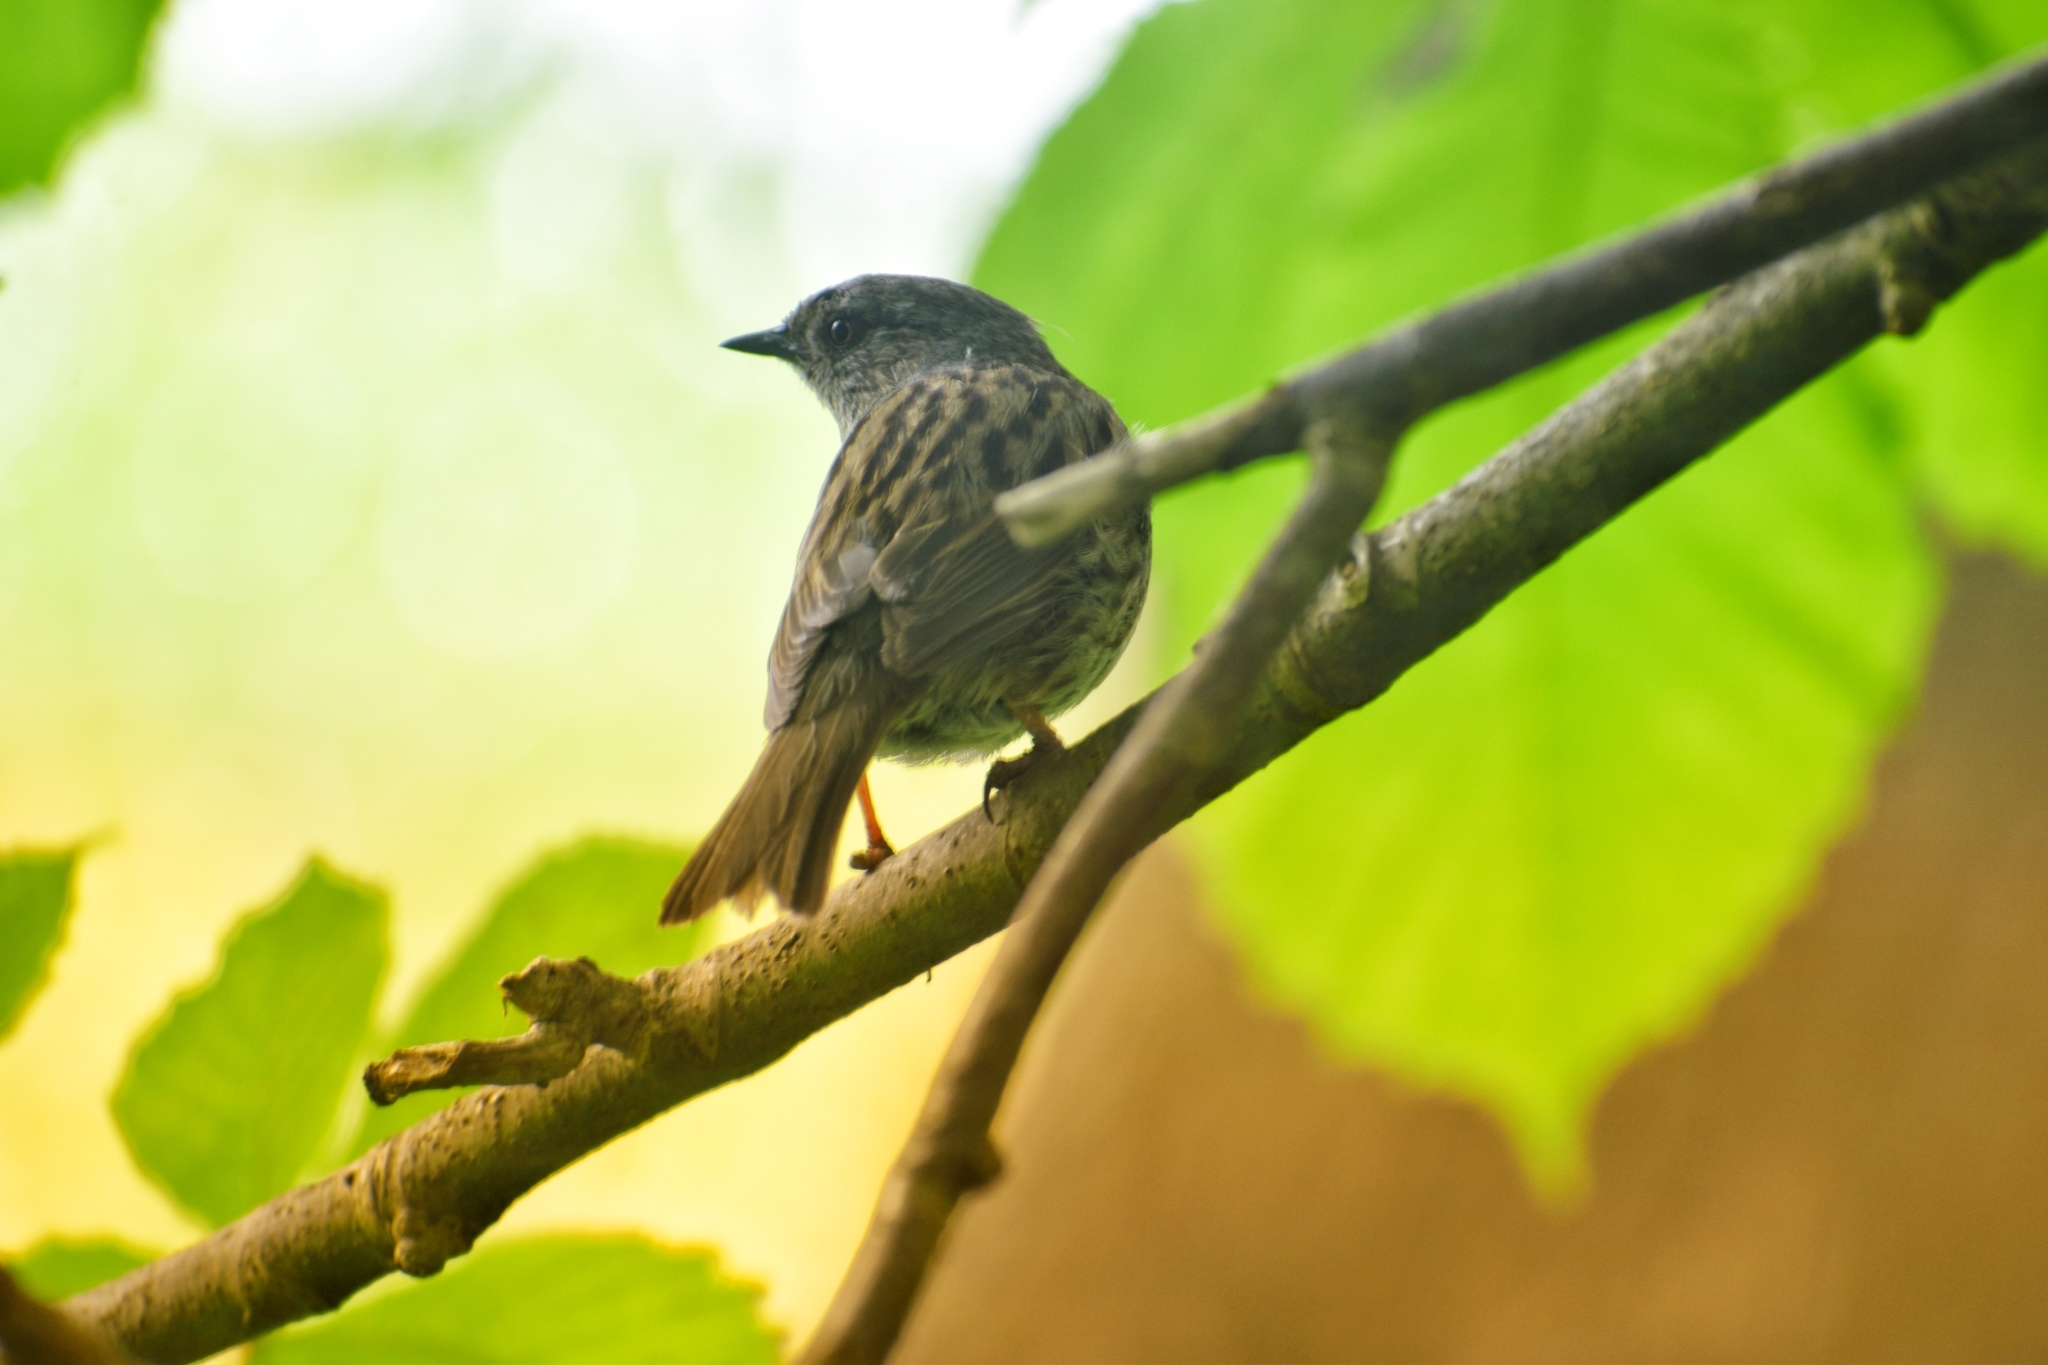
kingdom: Animalia
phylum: Chordata
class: Aves
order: Passeriformes
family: Prunellidae
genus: Prunella
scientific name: Prunella modularis
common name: Dunnock
